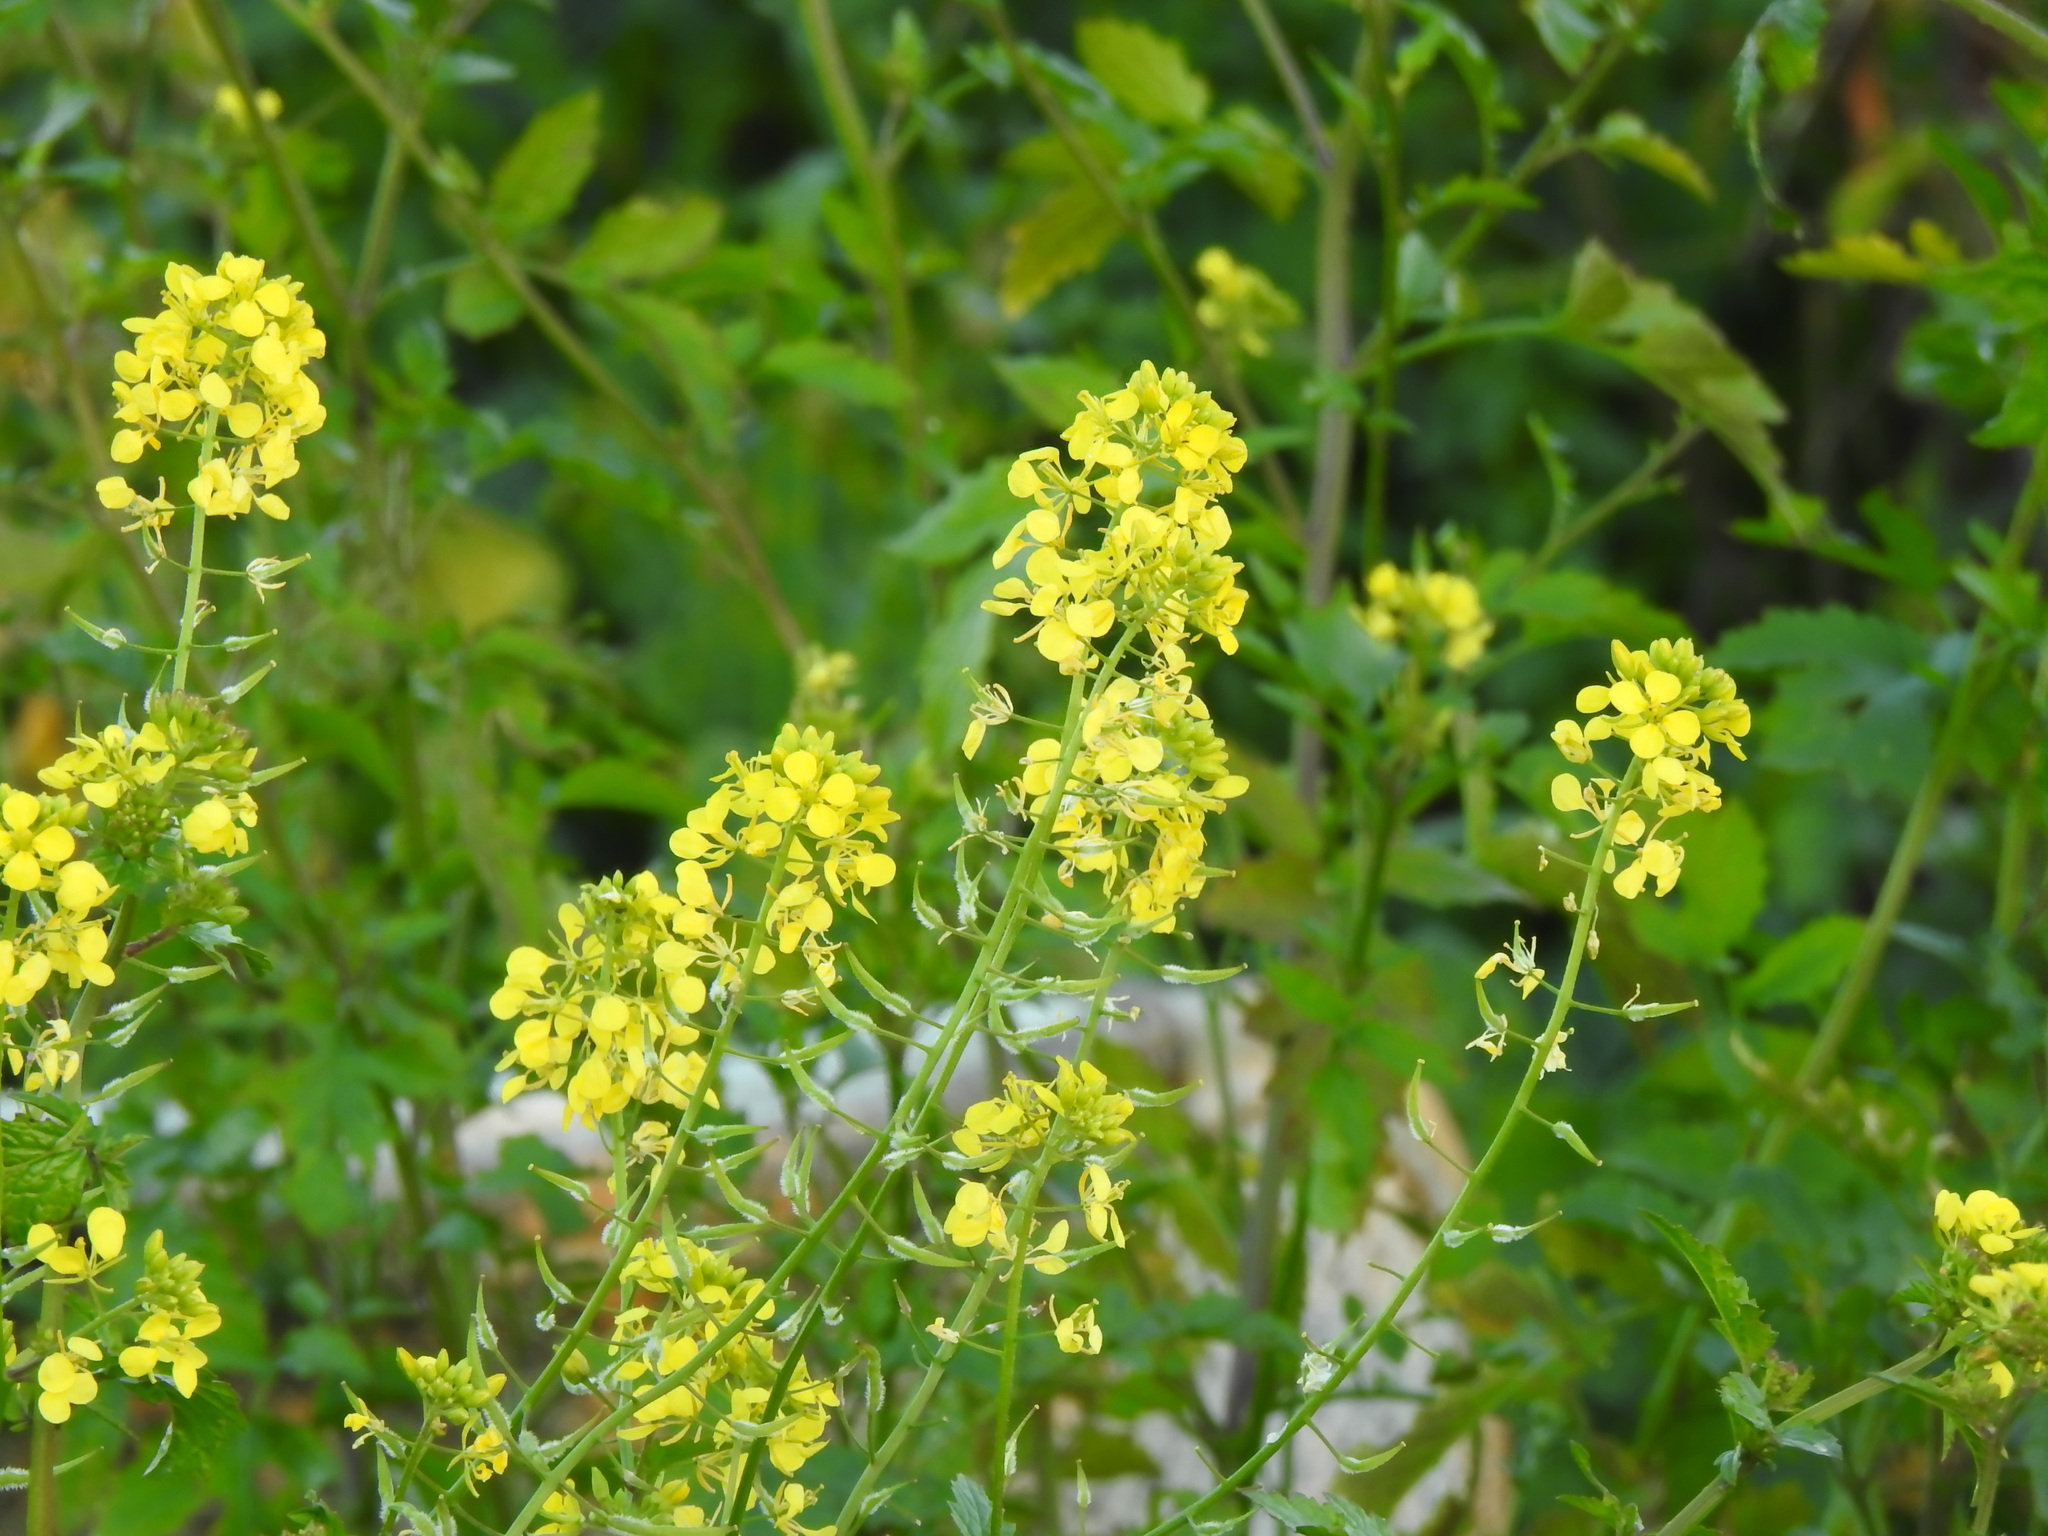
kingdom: Plantae
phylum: Tracheophyta
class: Magnoliopsida
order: Brassicales
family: Brassicaceae
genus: Sinapis
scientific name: Sinapis alba
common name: White mustard
